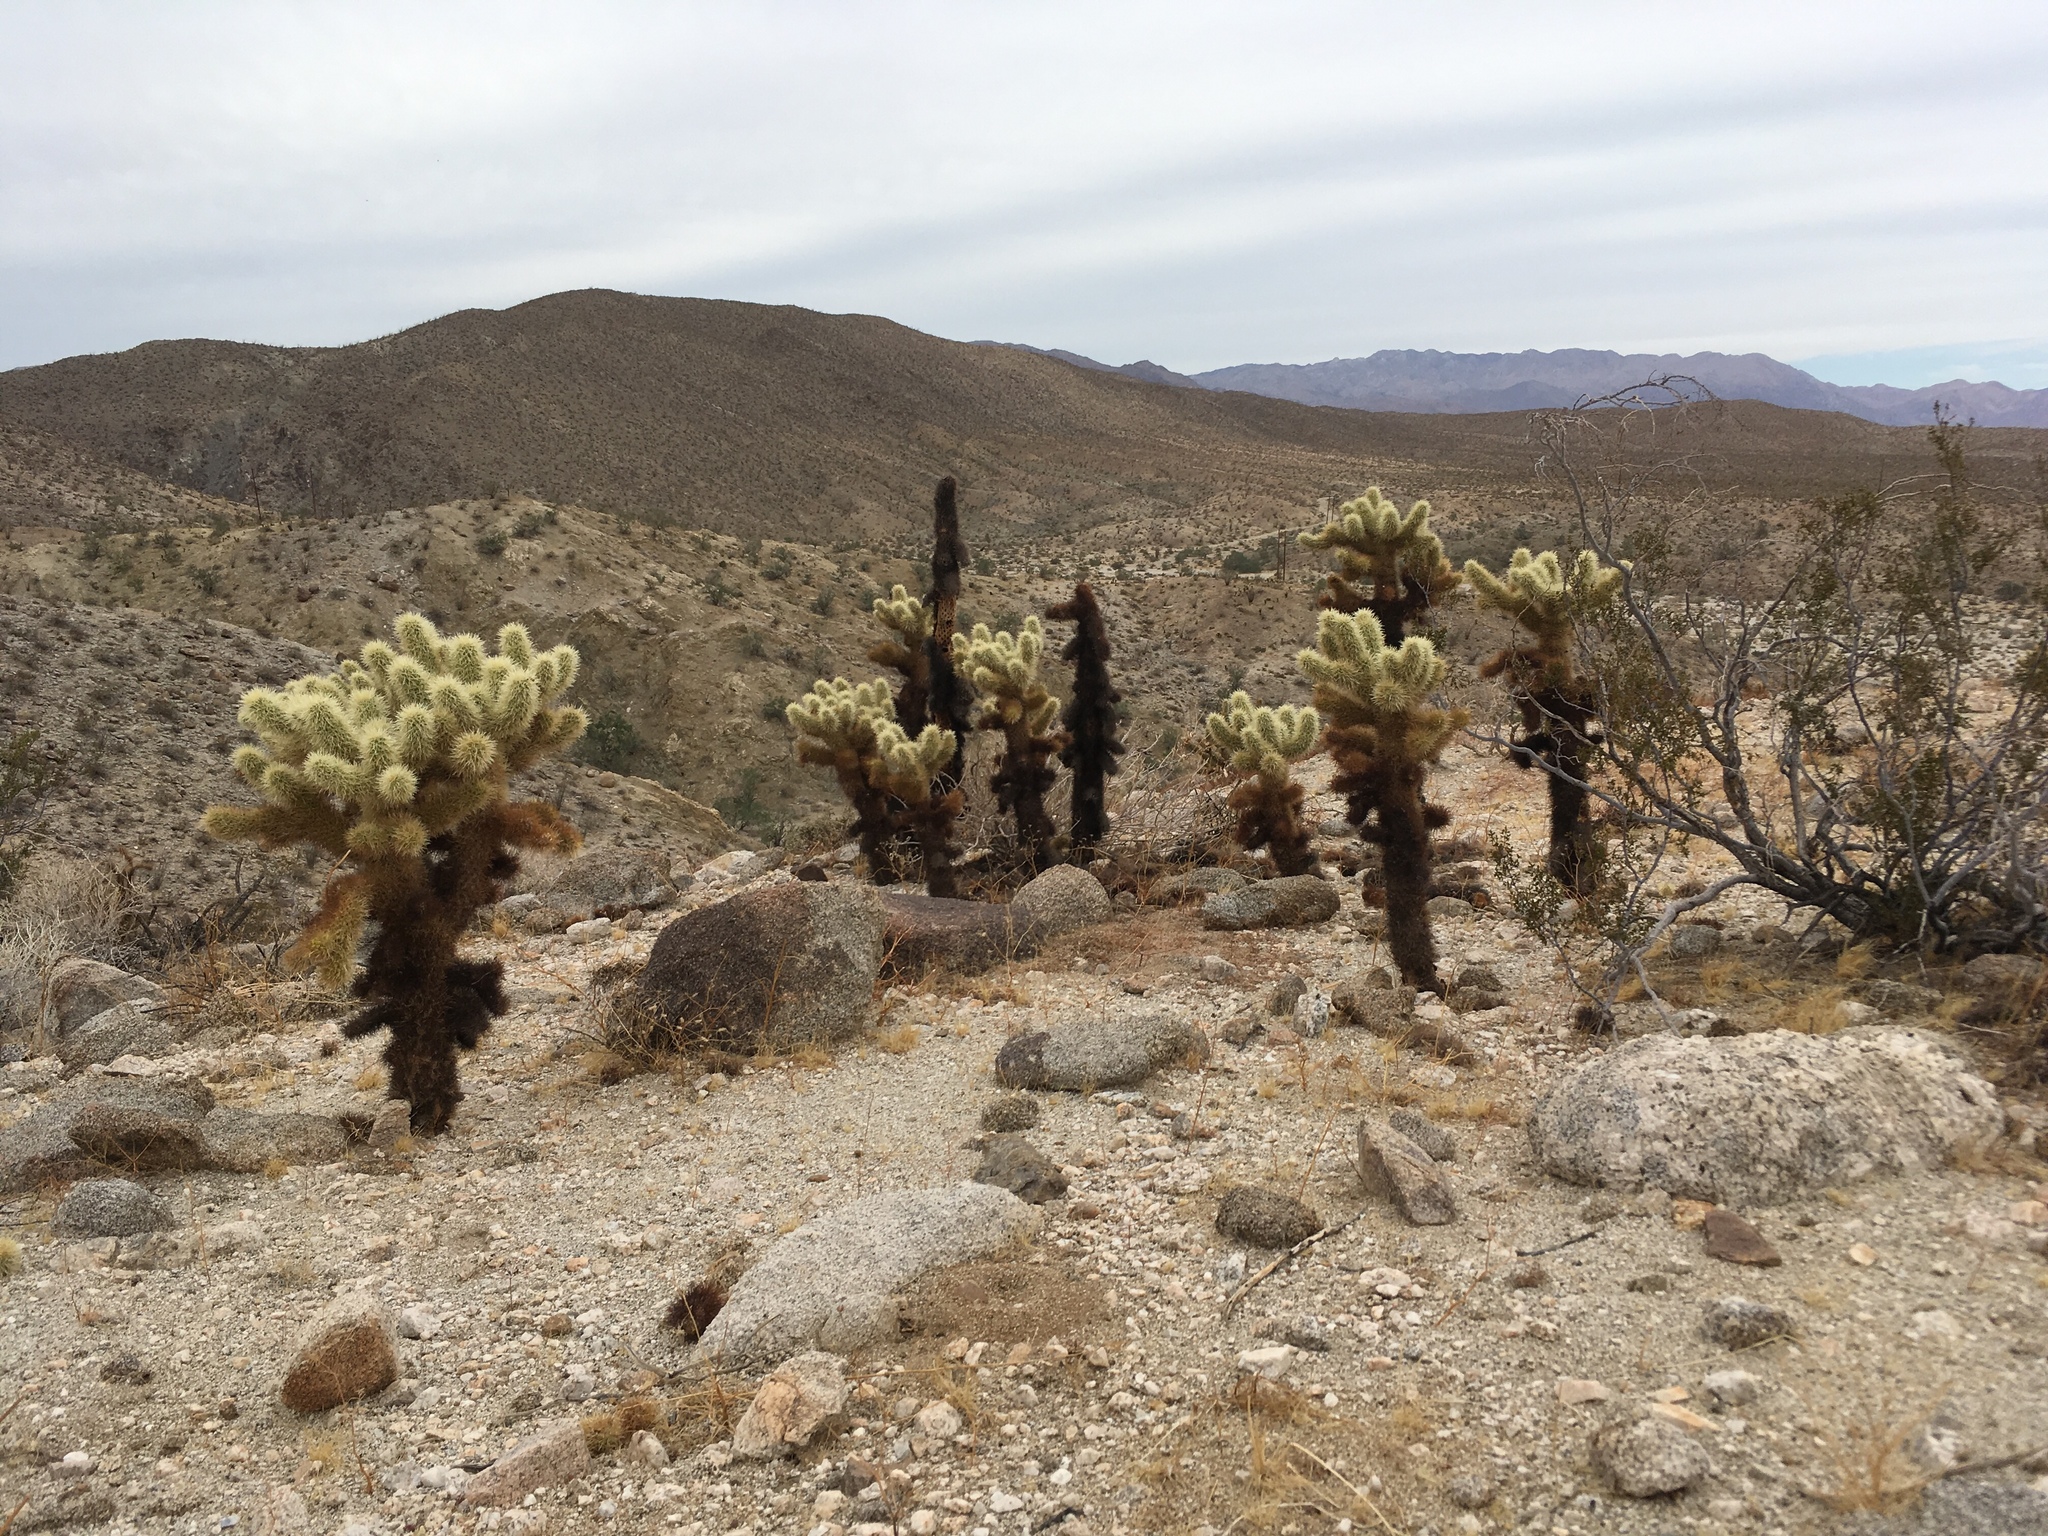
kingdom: Plantae
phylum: Tracheophyta
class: Magnoliopsida
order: Caryophyllales
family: Cactaceae
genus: Cylindropuntia
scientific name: Cylindropuntia fosbergii
